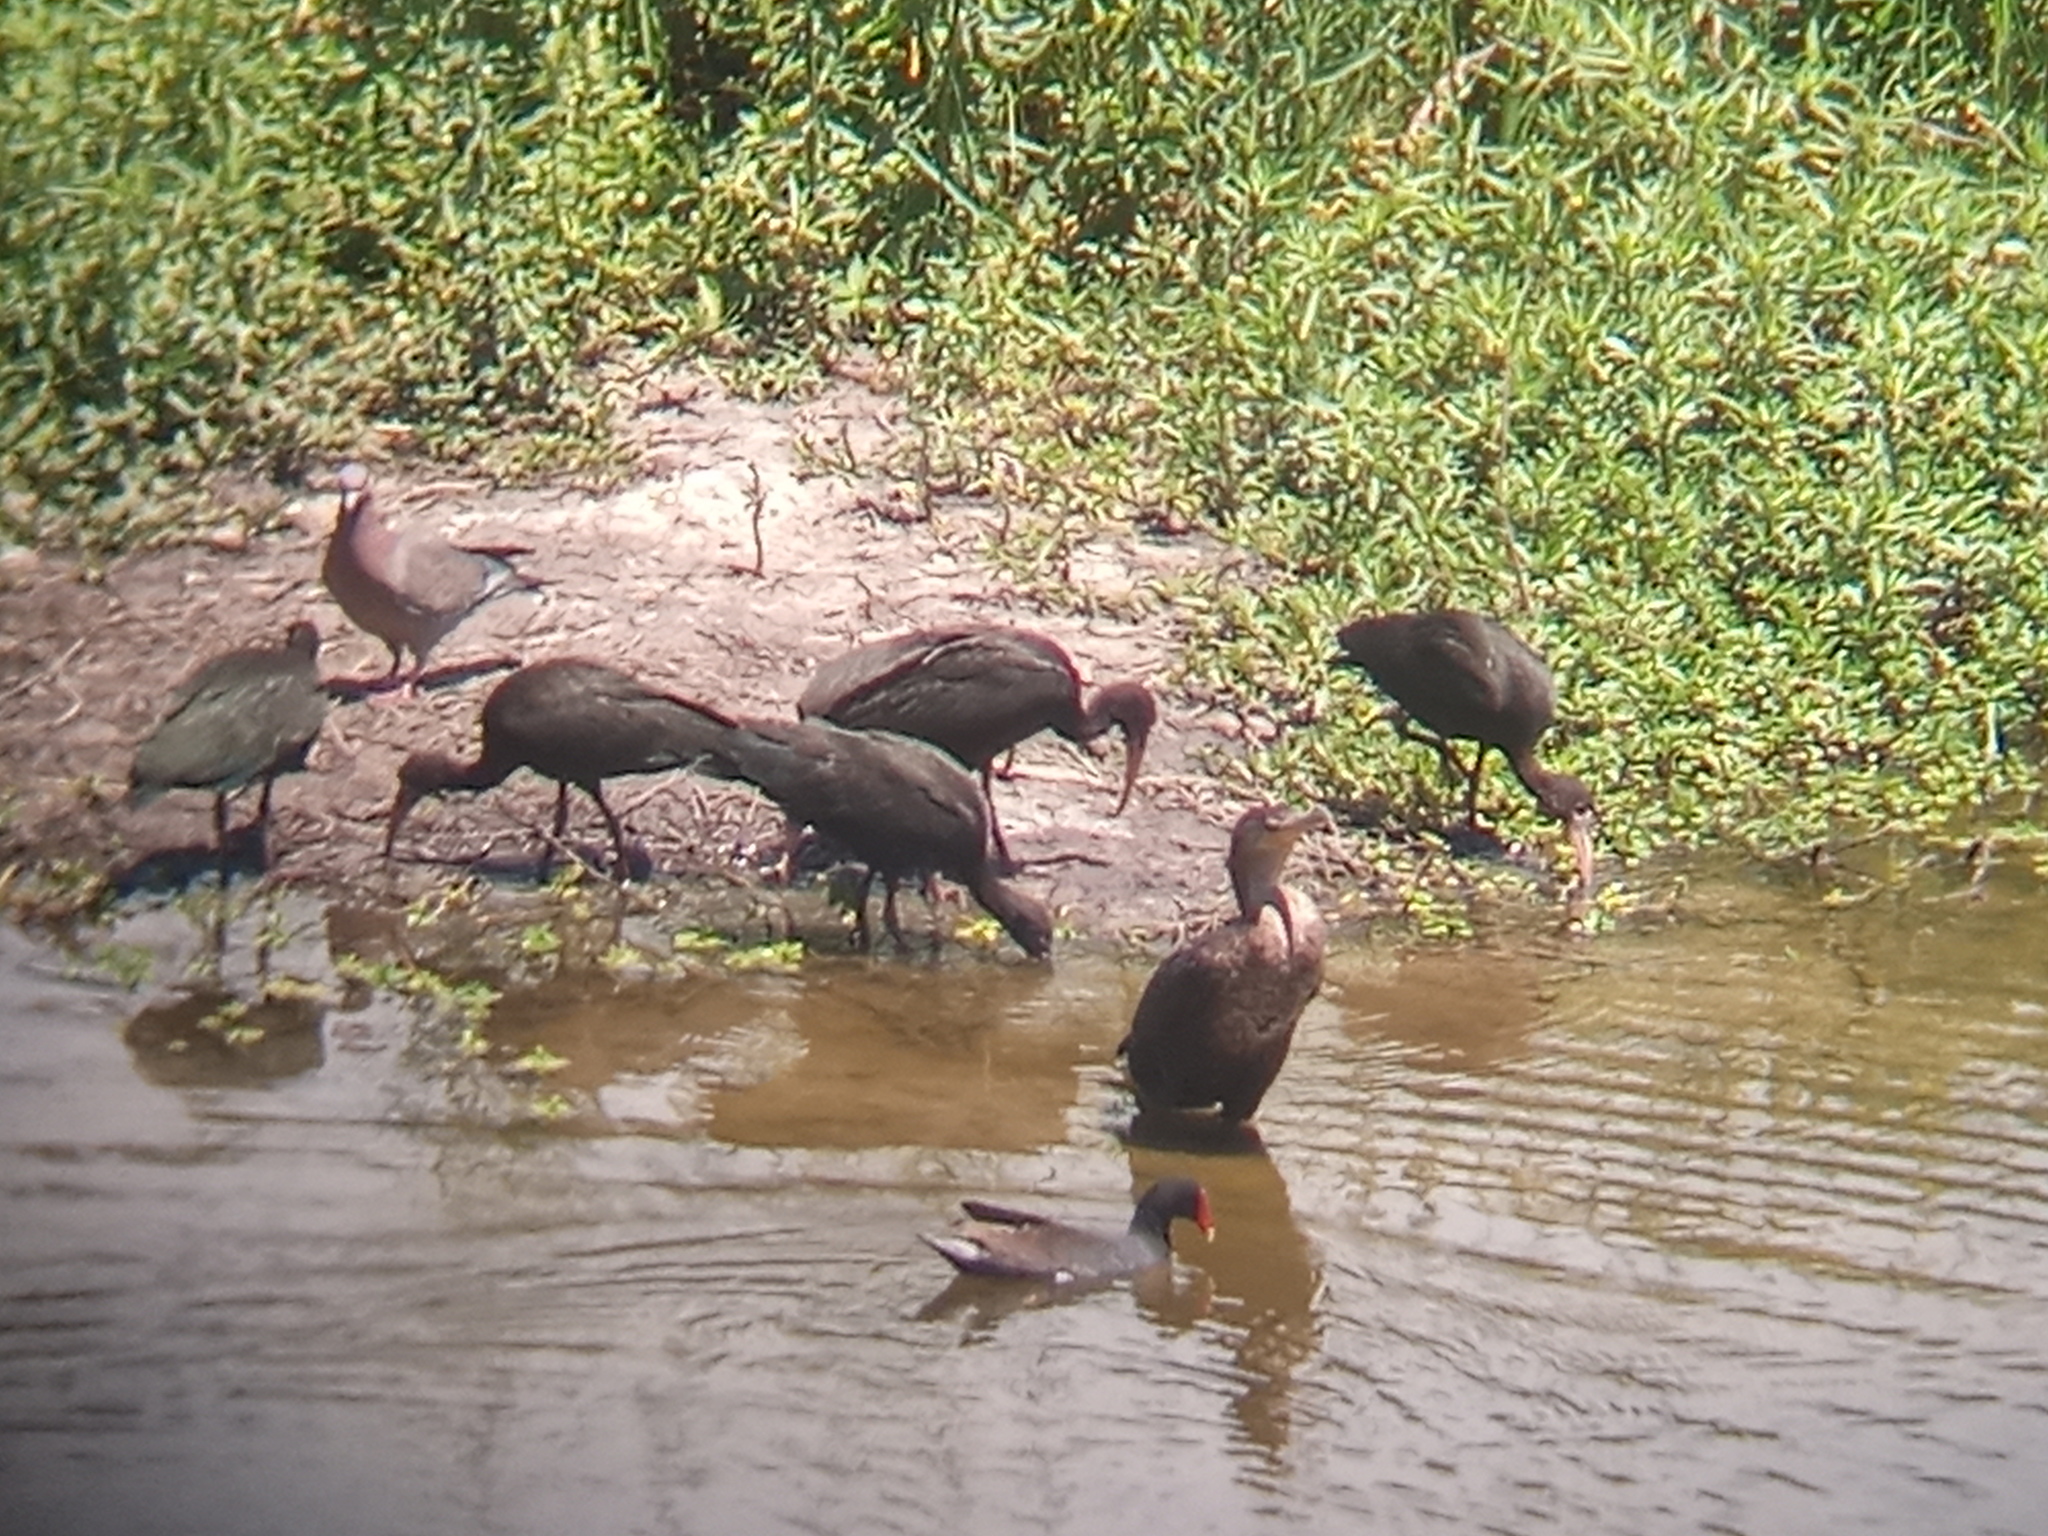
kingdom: Animalia
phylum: Chordata
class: Aves
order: Columbiformes
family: Columbidae
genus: Patagioenas
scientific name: Patagioenas picazuro
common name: Picazuro pigeon
